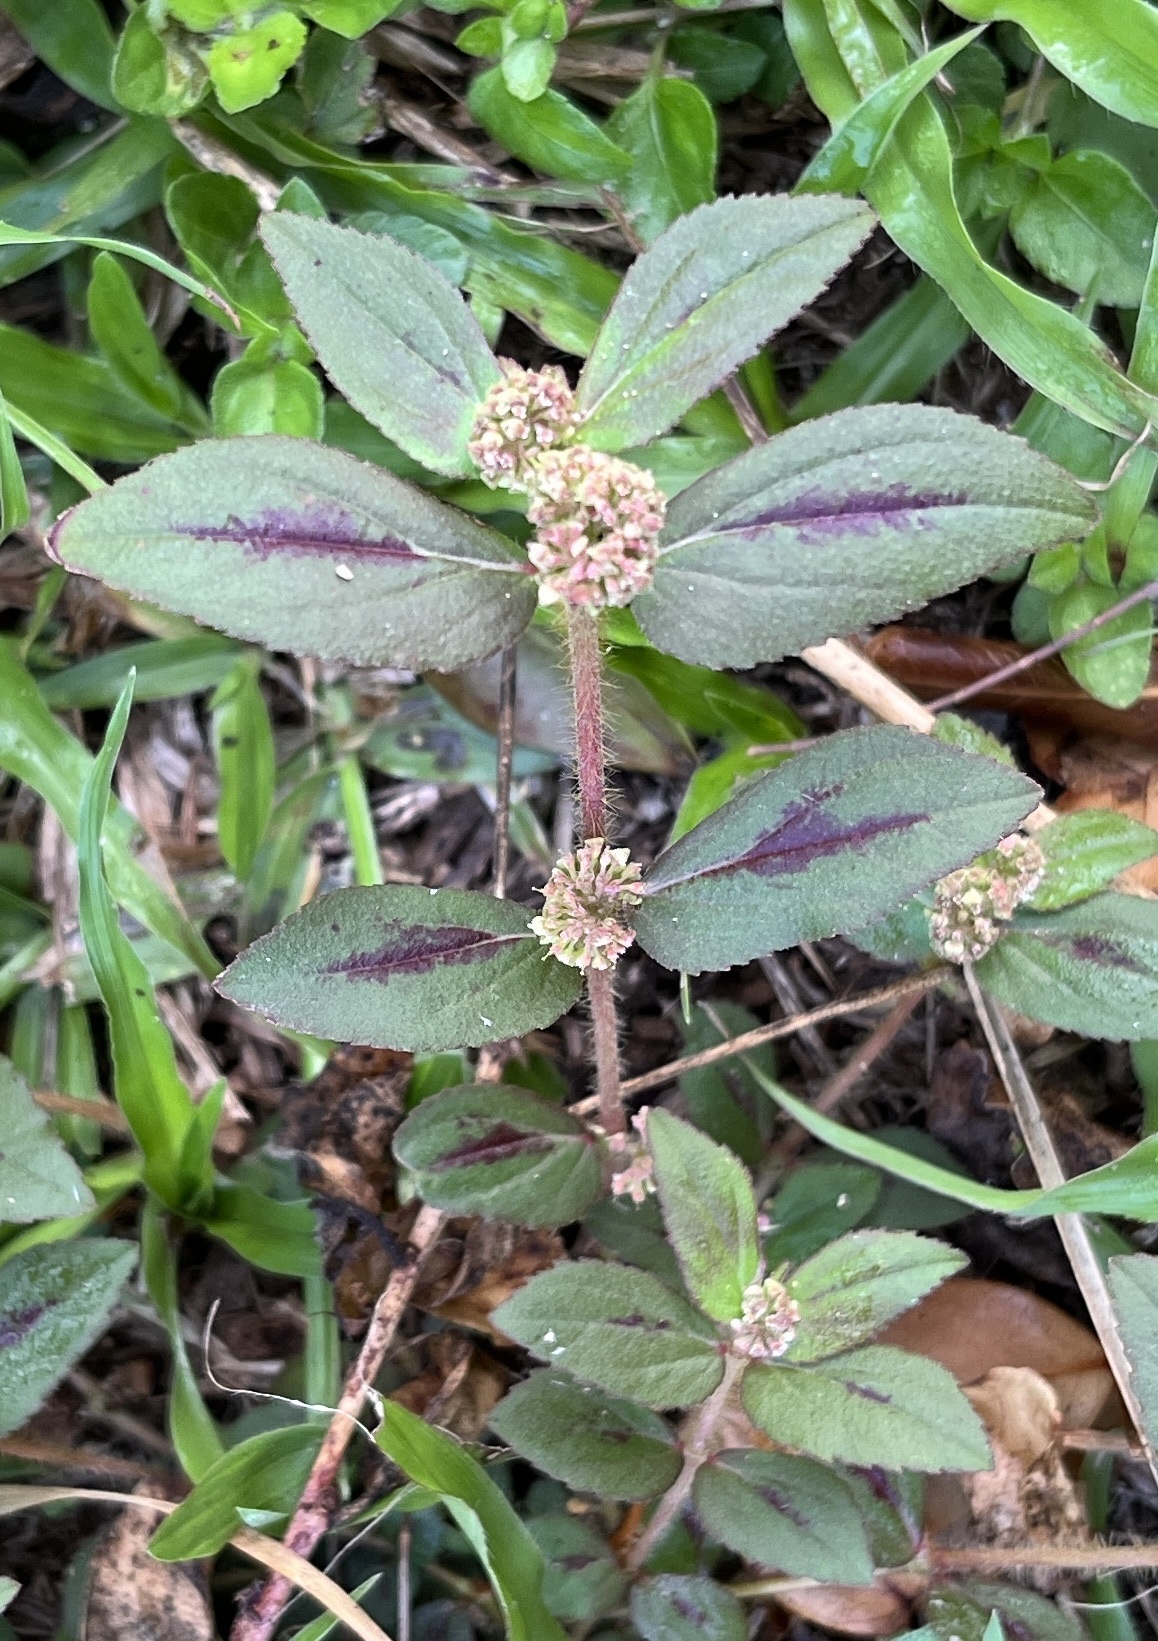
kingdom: Plantae
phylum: Tracheophyta
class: Magnoliopsida
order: Malpighiales
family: Euphorbiaceae
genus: Euphorbia
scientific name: Euphorbia hirta
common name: Pillpod sandmat
